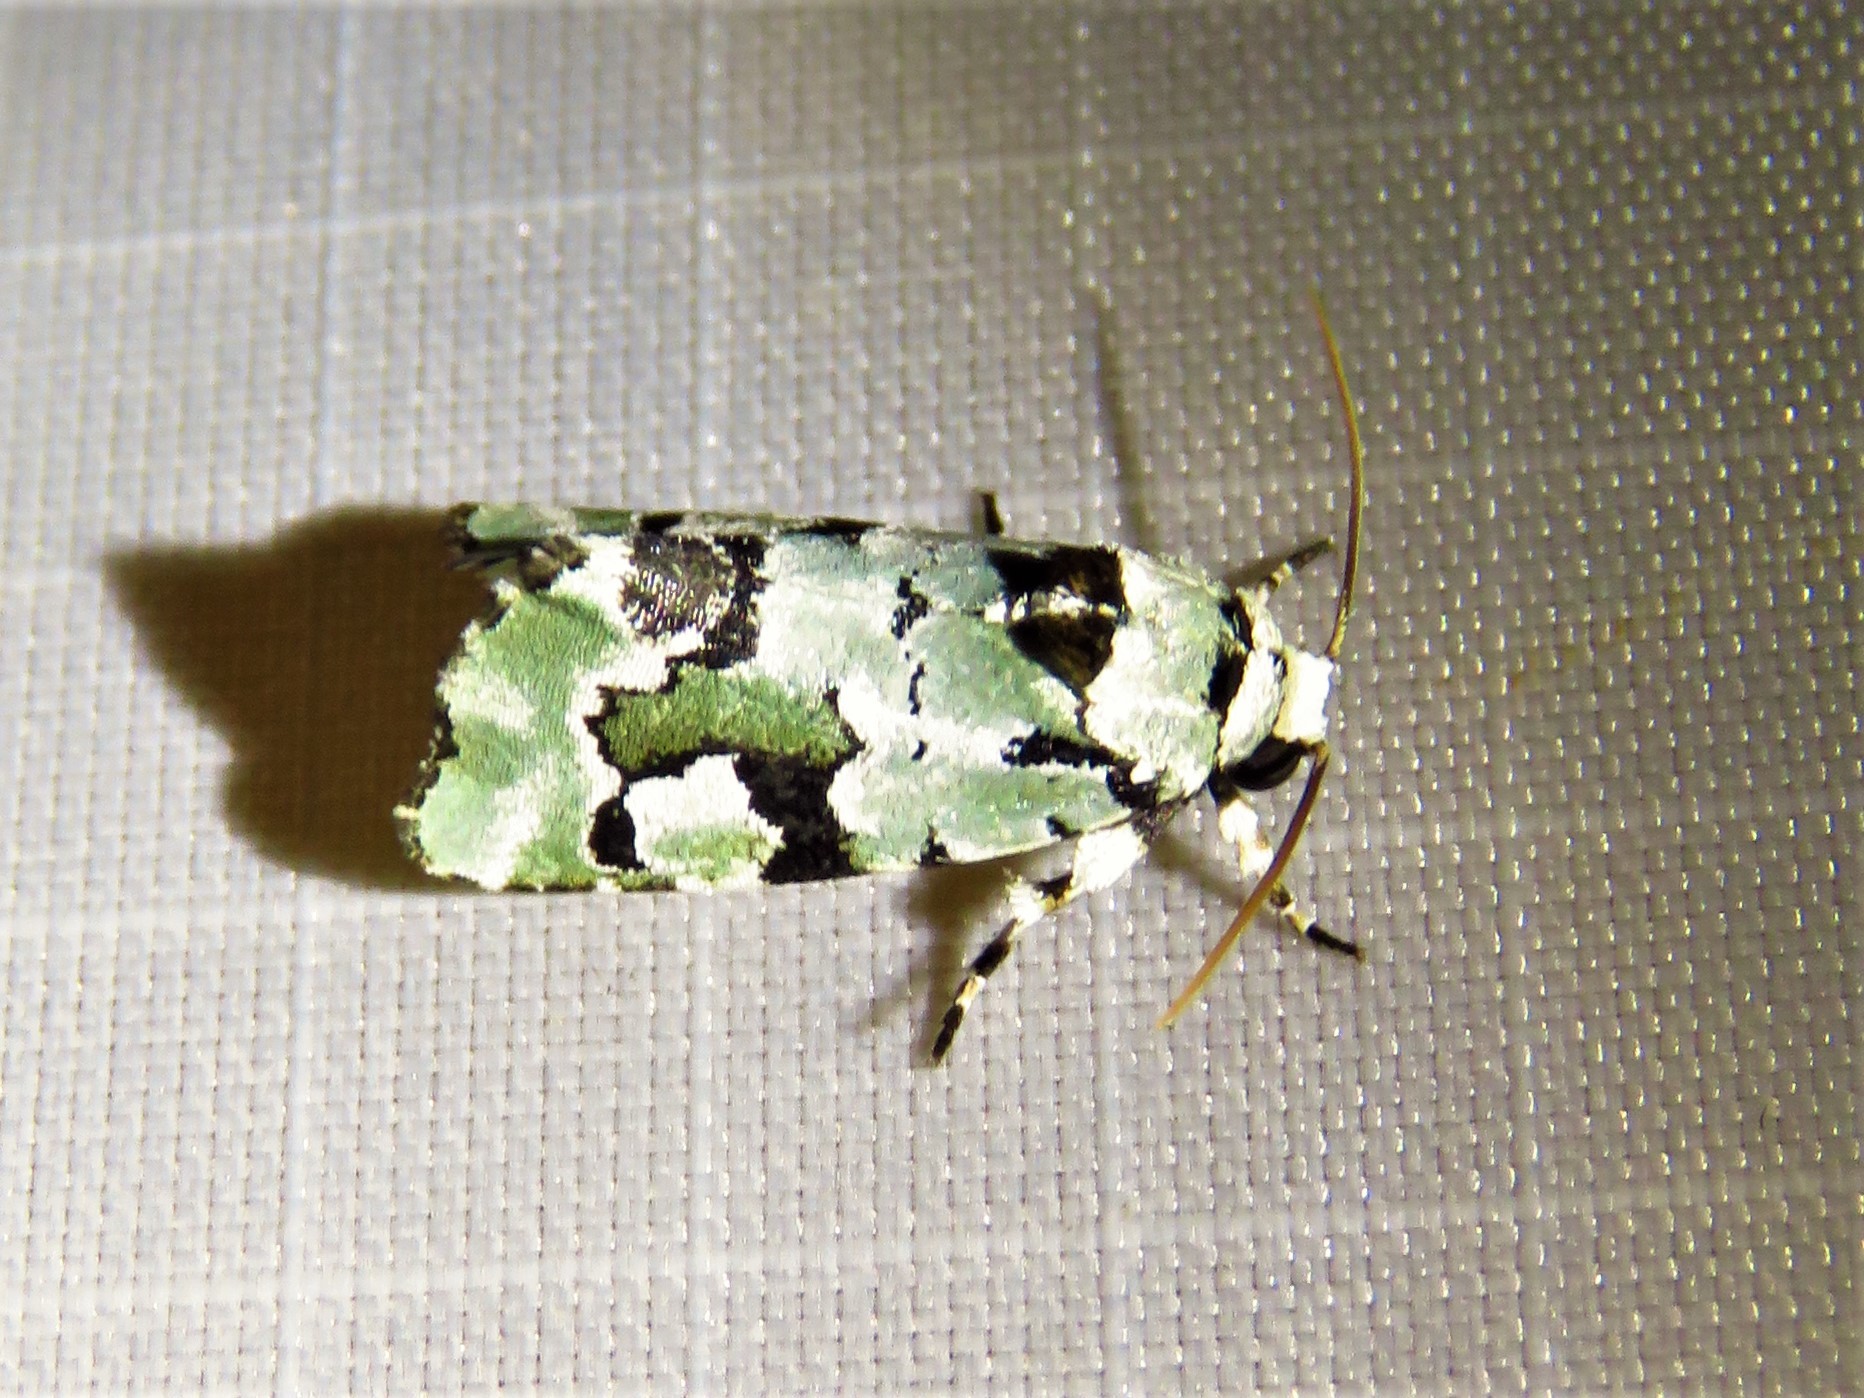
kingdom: Animalia
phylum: Arthropoda
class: Insecta
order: Lepidoptera
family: Noctuidae
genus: Emarginea
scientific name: Emarginea percara
